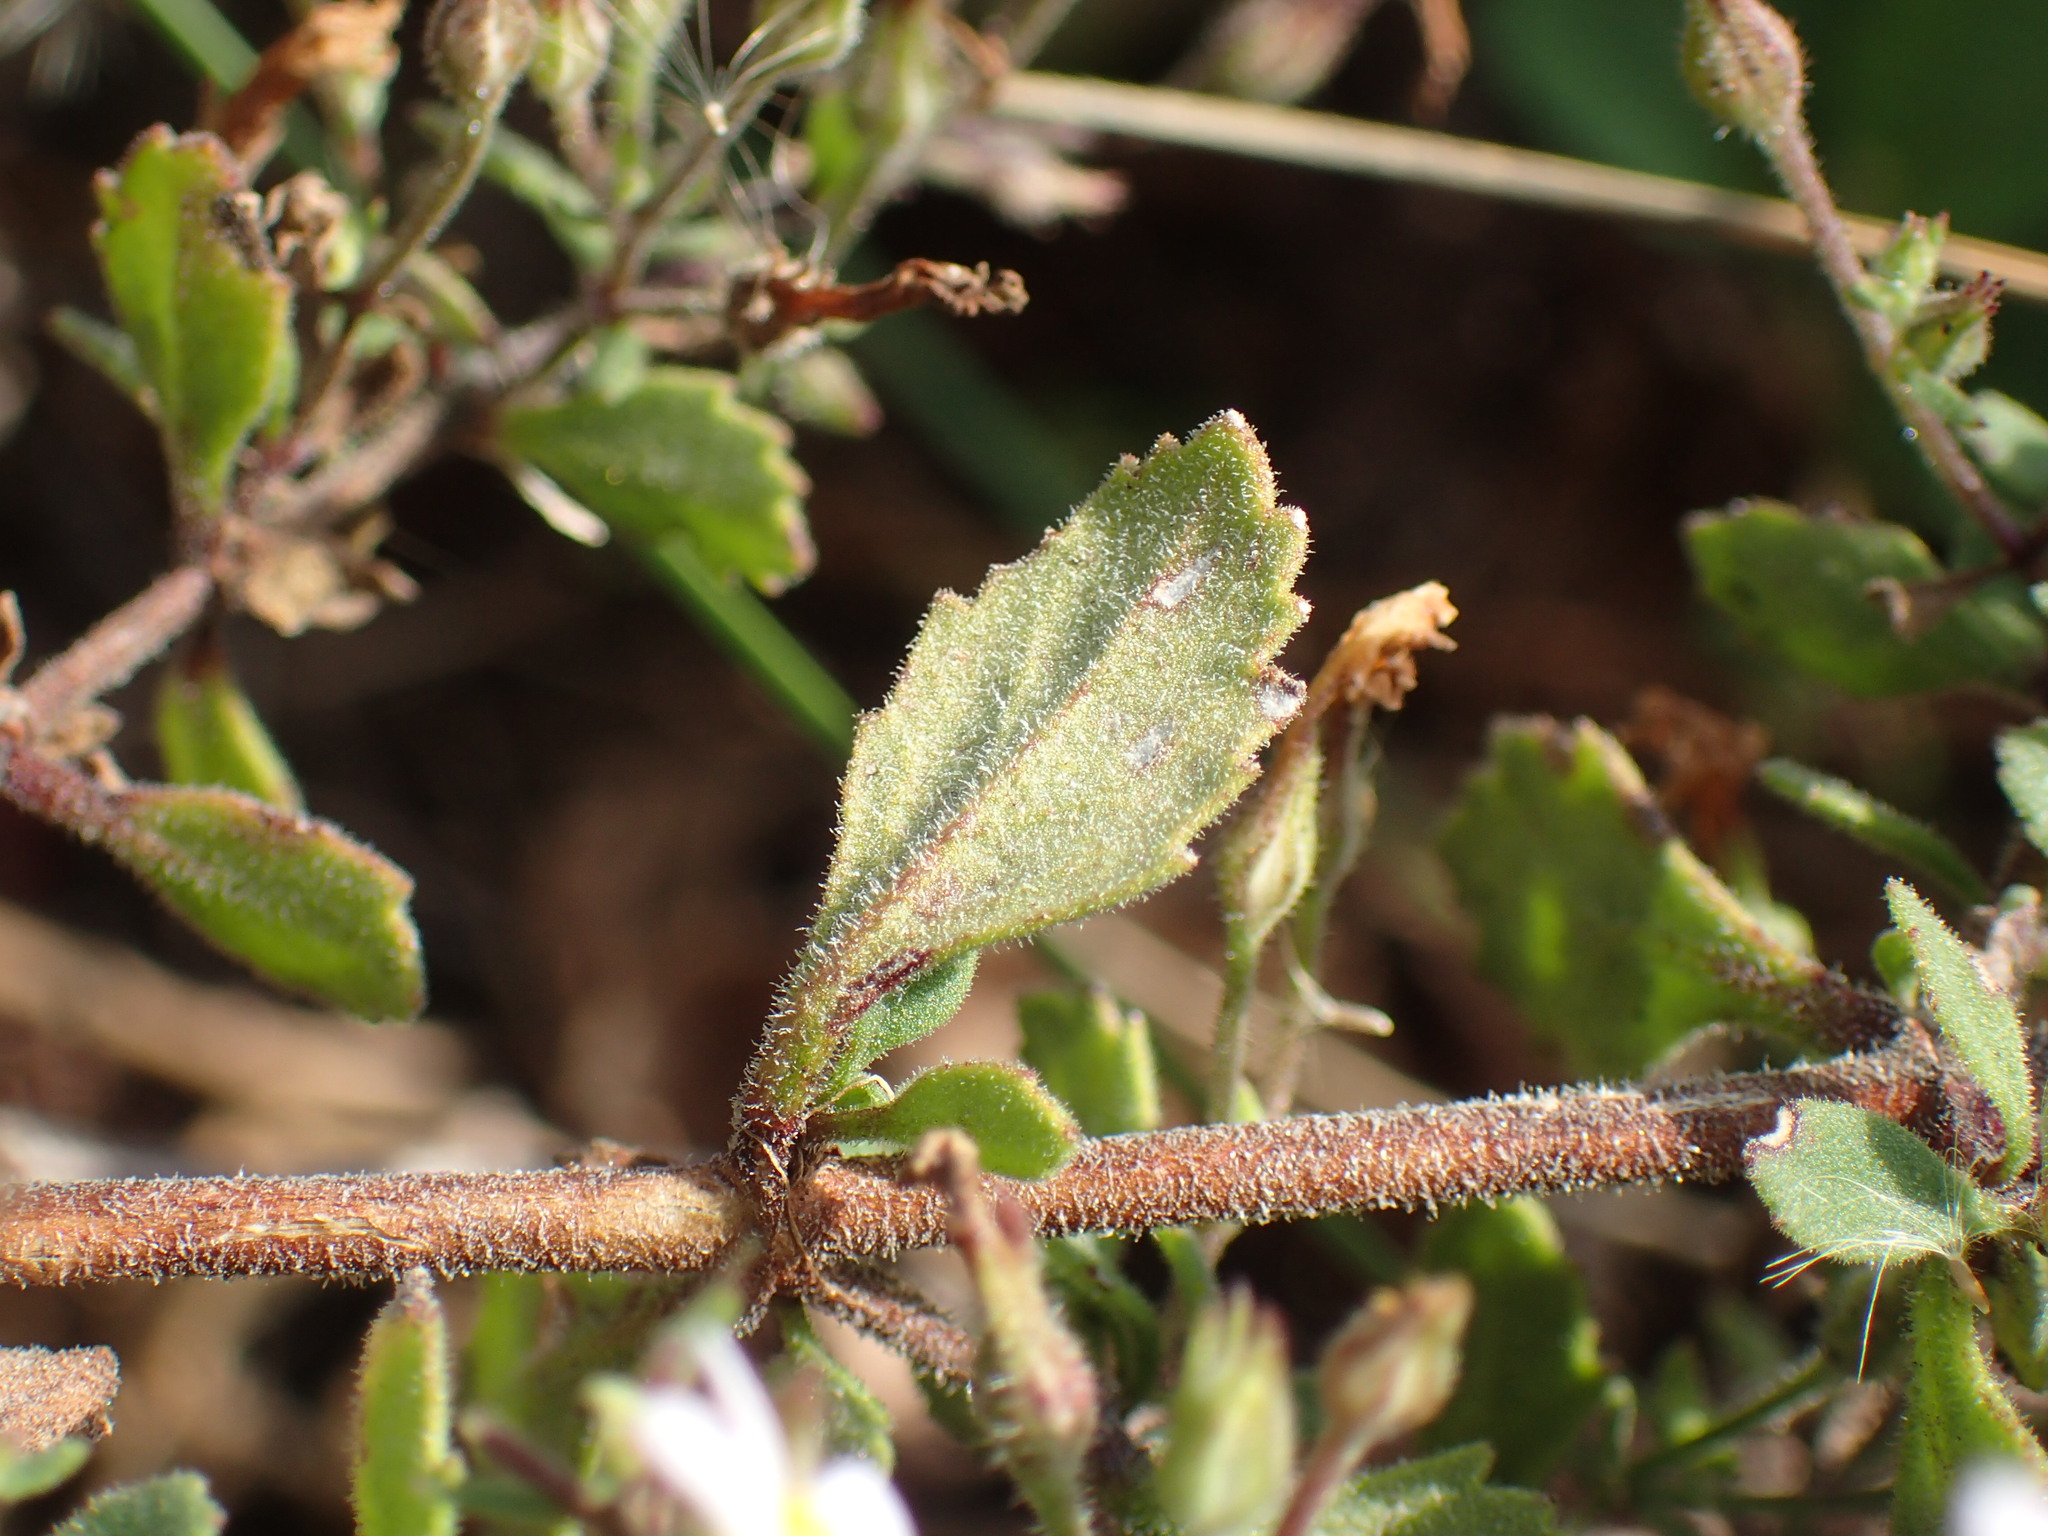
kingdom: Plantae
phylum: Tracheophyta
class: Magnoliopsida
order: Lamiales
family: Scrophulariaceae
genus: Chaenostoma
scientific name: Chaenostoma floribundum
